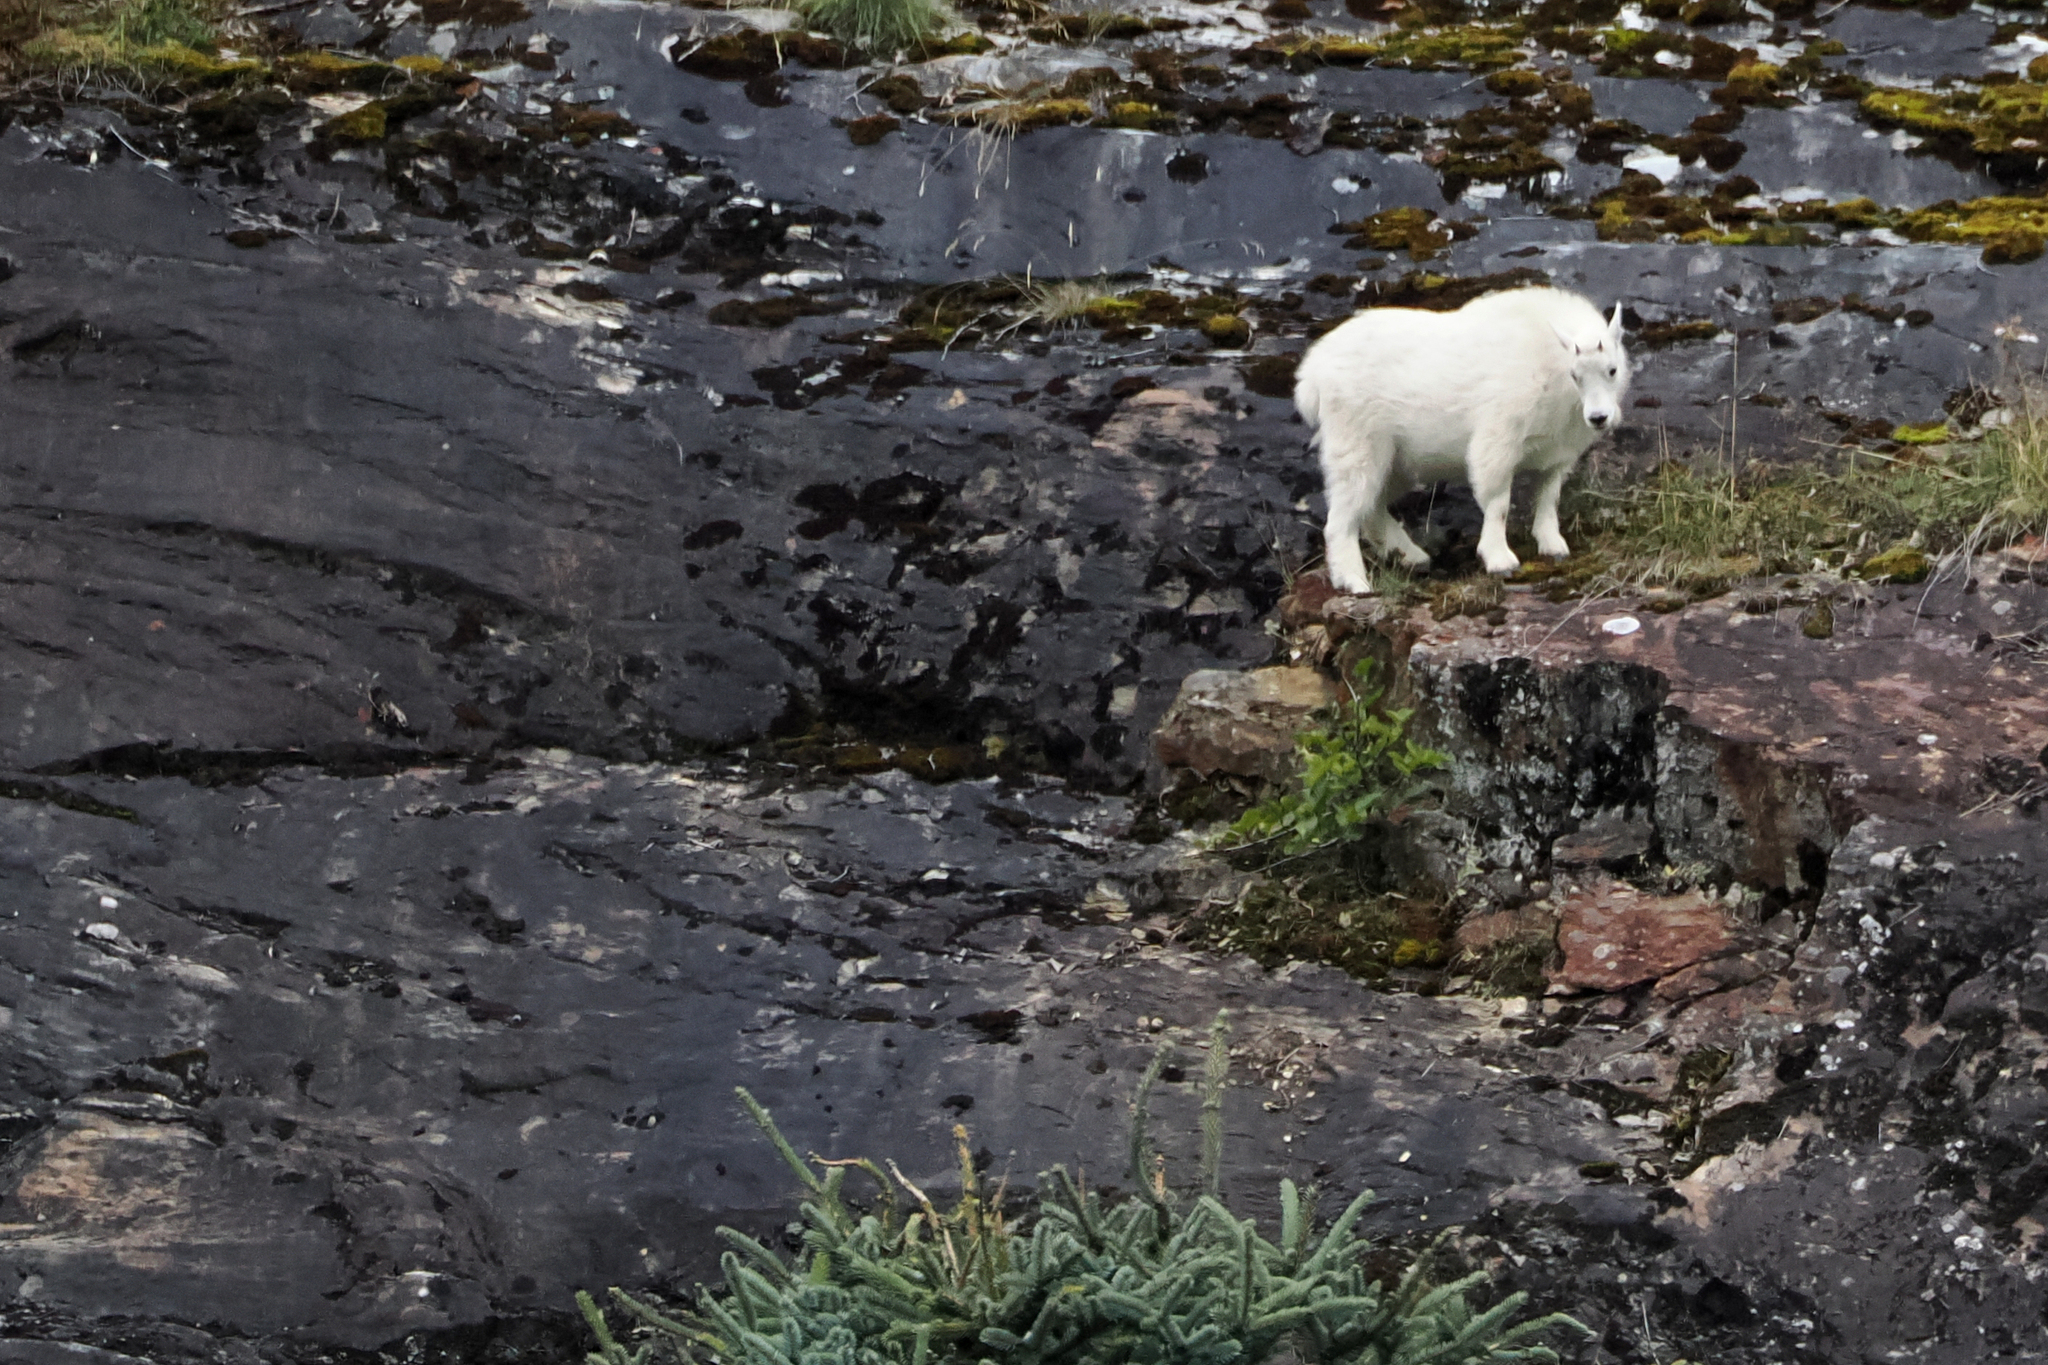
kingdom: Animalia
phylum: Chordata
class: Mammalia
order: Artiodactyla
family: Bovidae
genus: Oreamnos
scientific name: Oreamnos americanus
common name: Mountain goat
